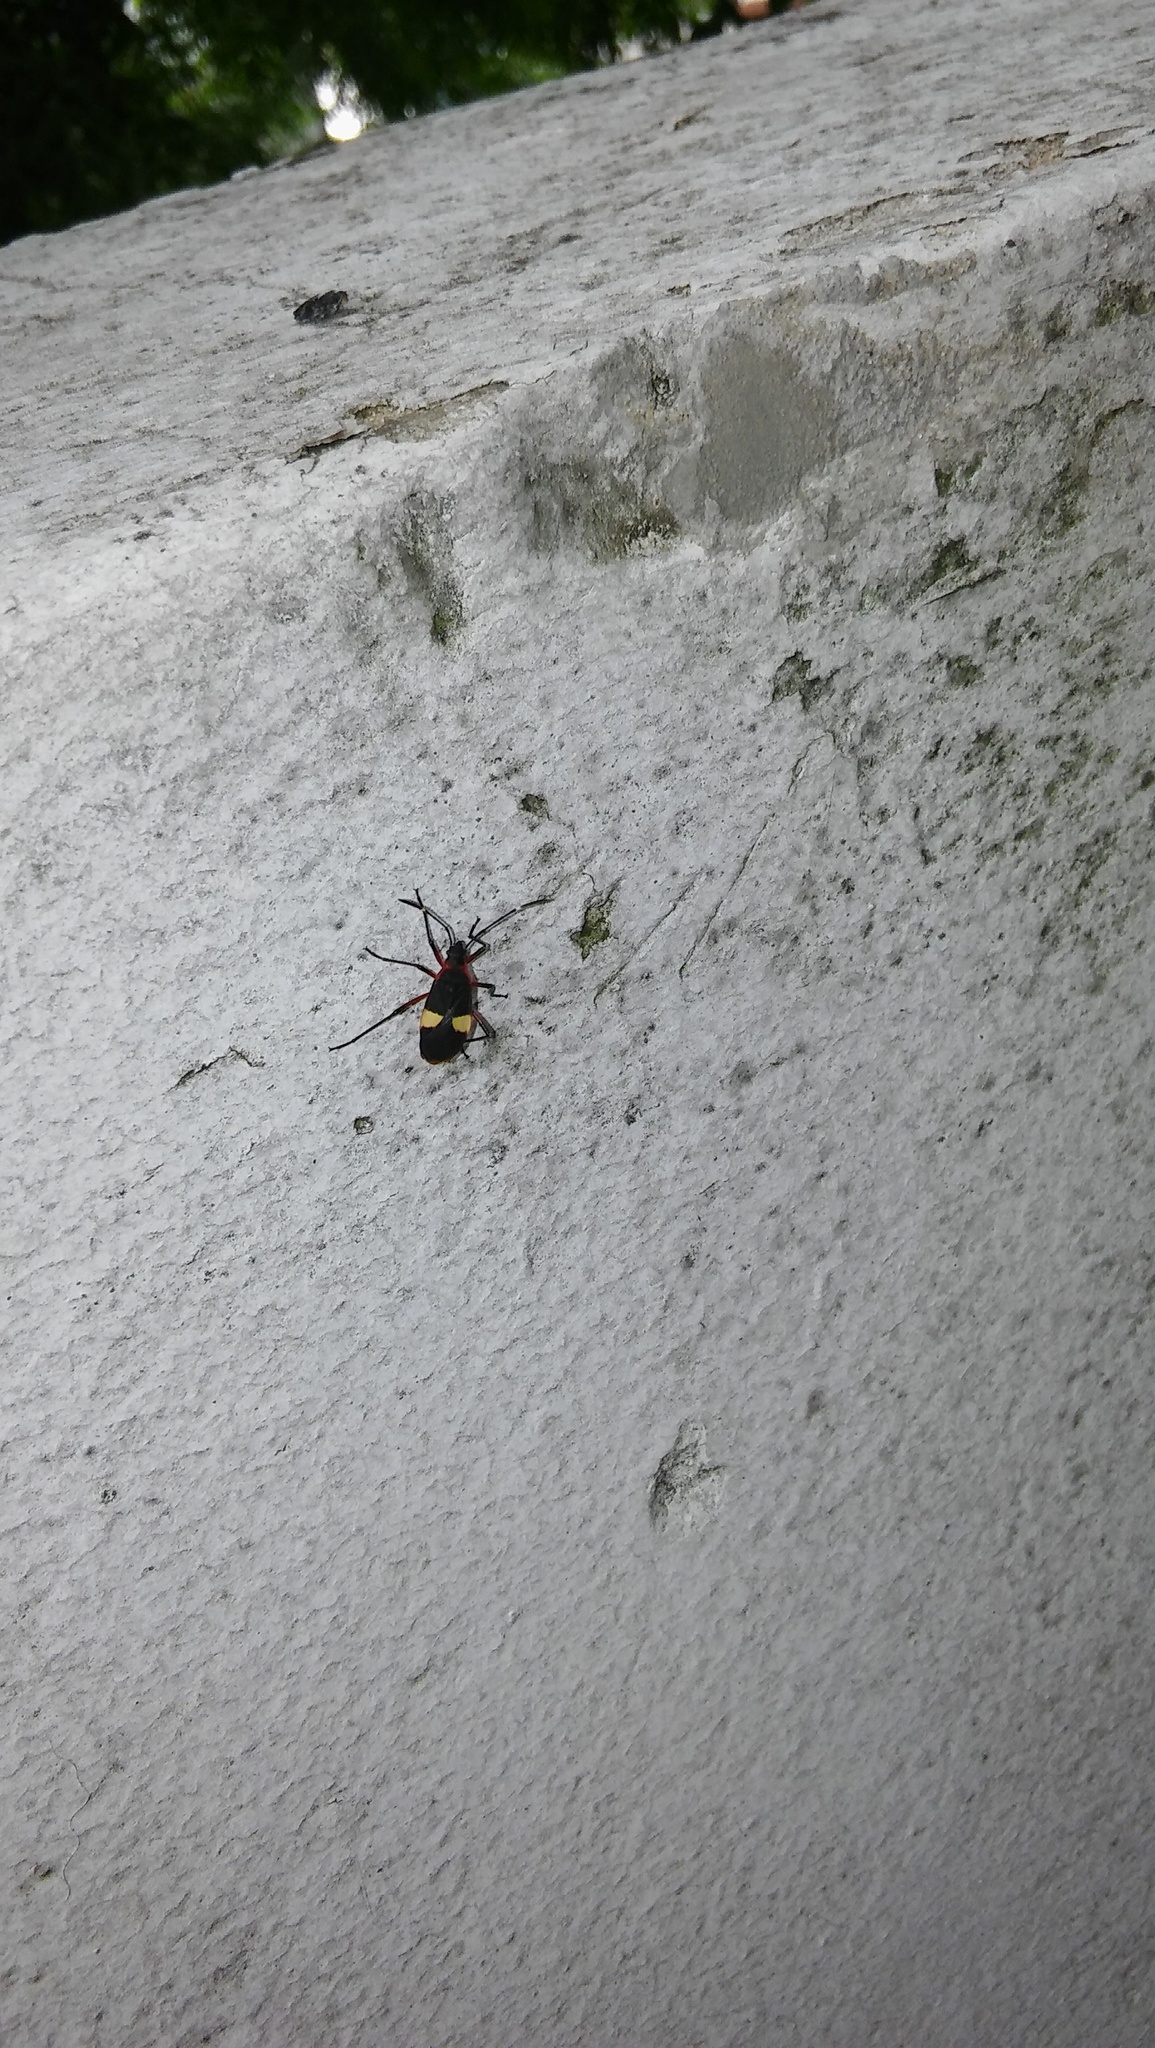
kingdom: Animalia
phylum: Arthropoda
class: Insecta
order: Hemiptera
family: Pyrrhocoridae
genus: Dysdercus
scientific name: Dysdercus albofasciatus
